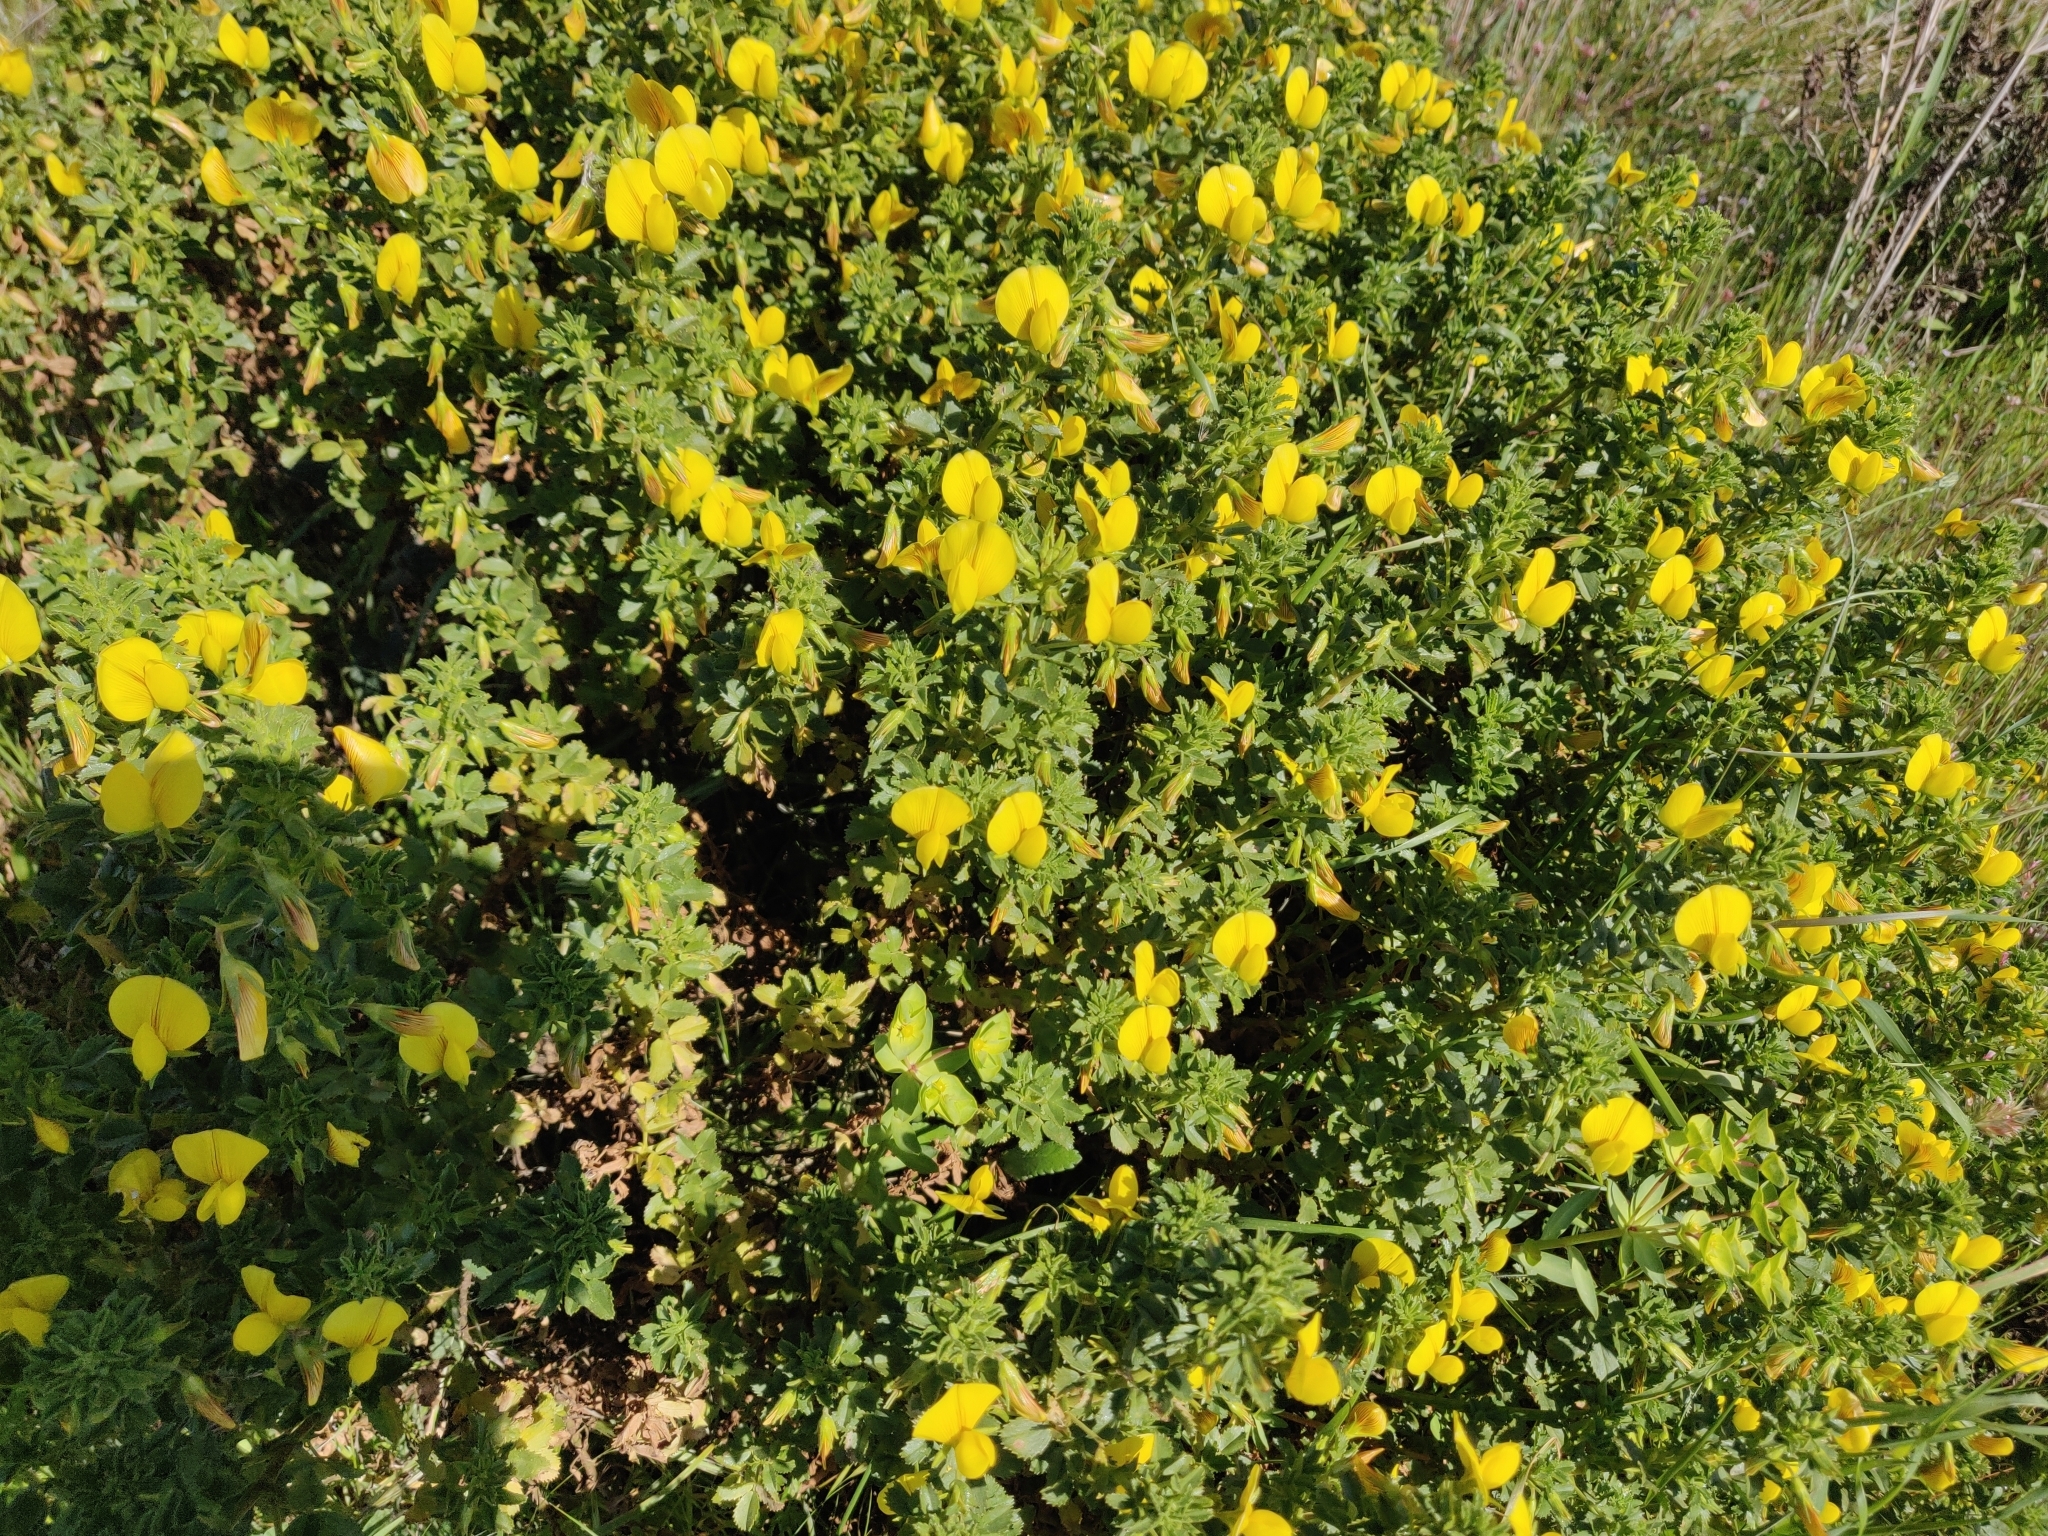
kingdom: Plantae
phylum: Tracheophyta
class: Magnoliopsida
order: Fabales
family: Fabaceae
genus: Ononis
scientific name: Ononis ramosissima
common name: Bush restharrow
